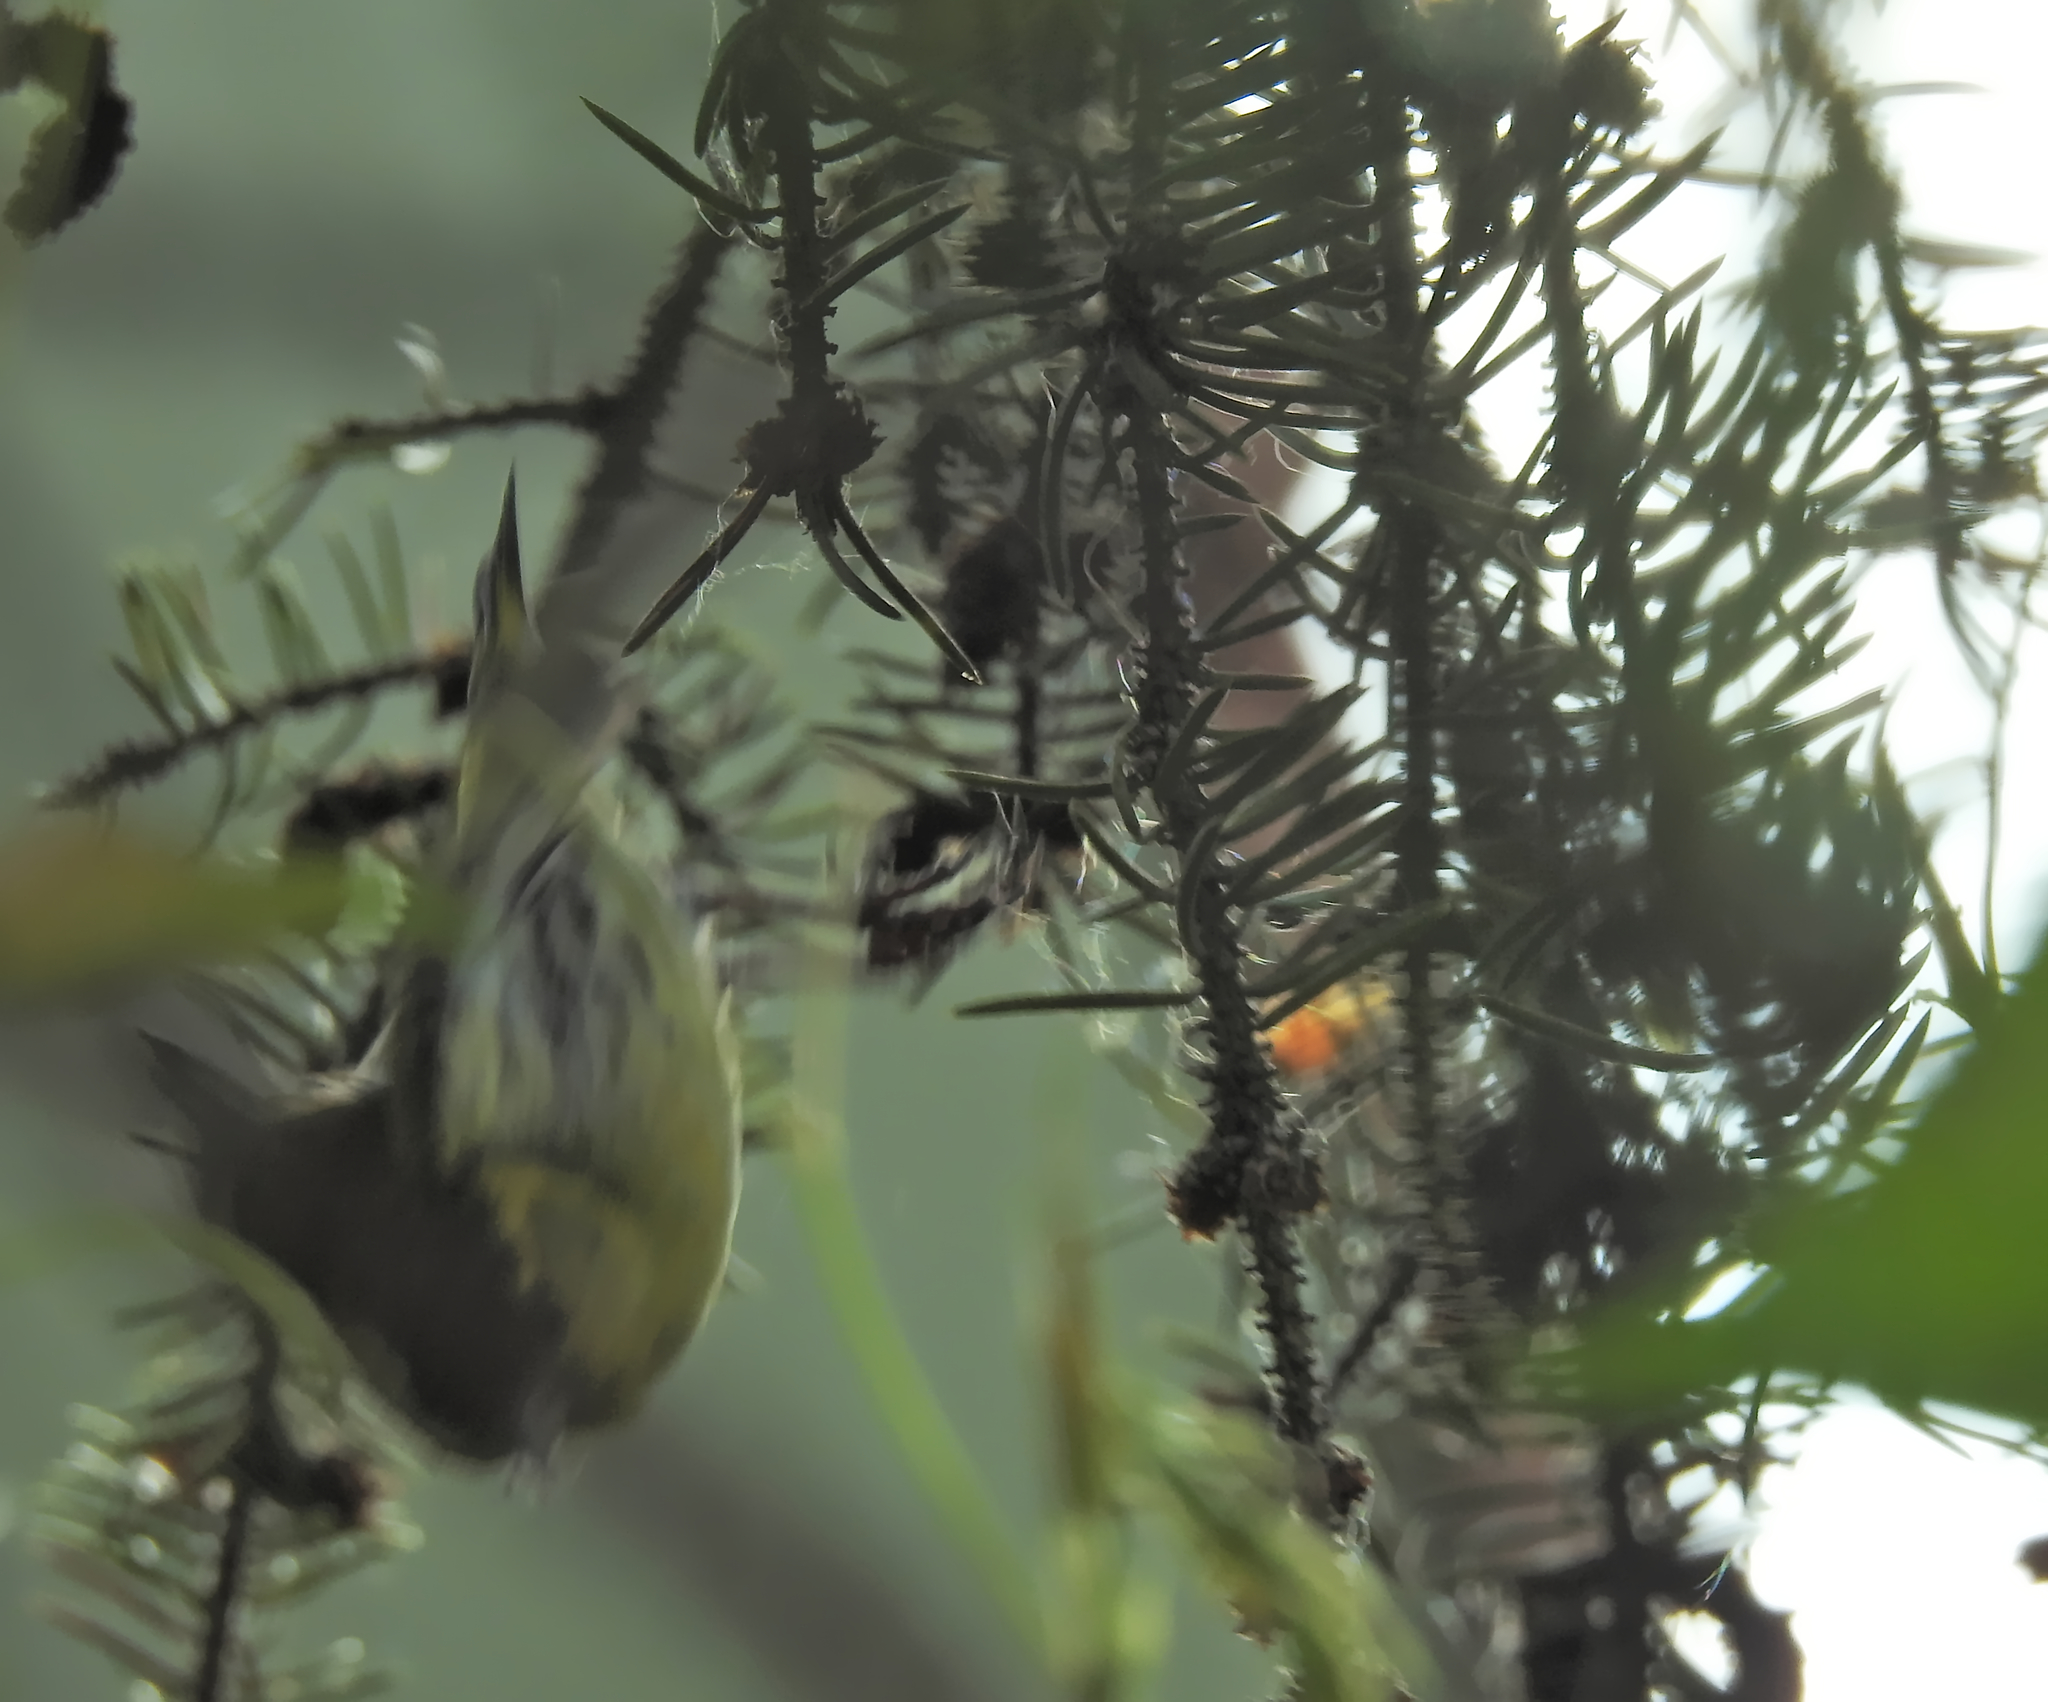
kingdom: Animalia
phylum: Chordata
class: Aves
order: Passeriformes
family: Fringillidae
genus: Spinus
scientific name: Spinus spinus
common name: Eurasian siskin
